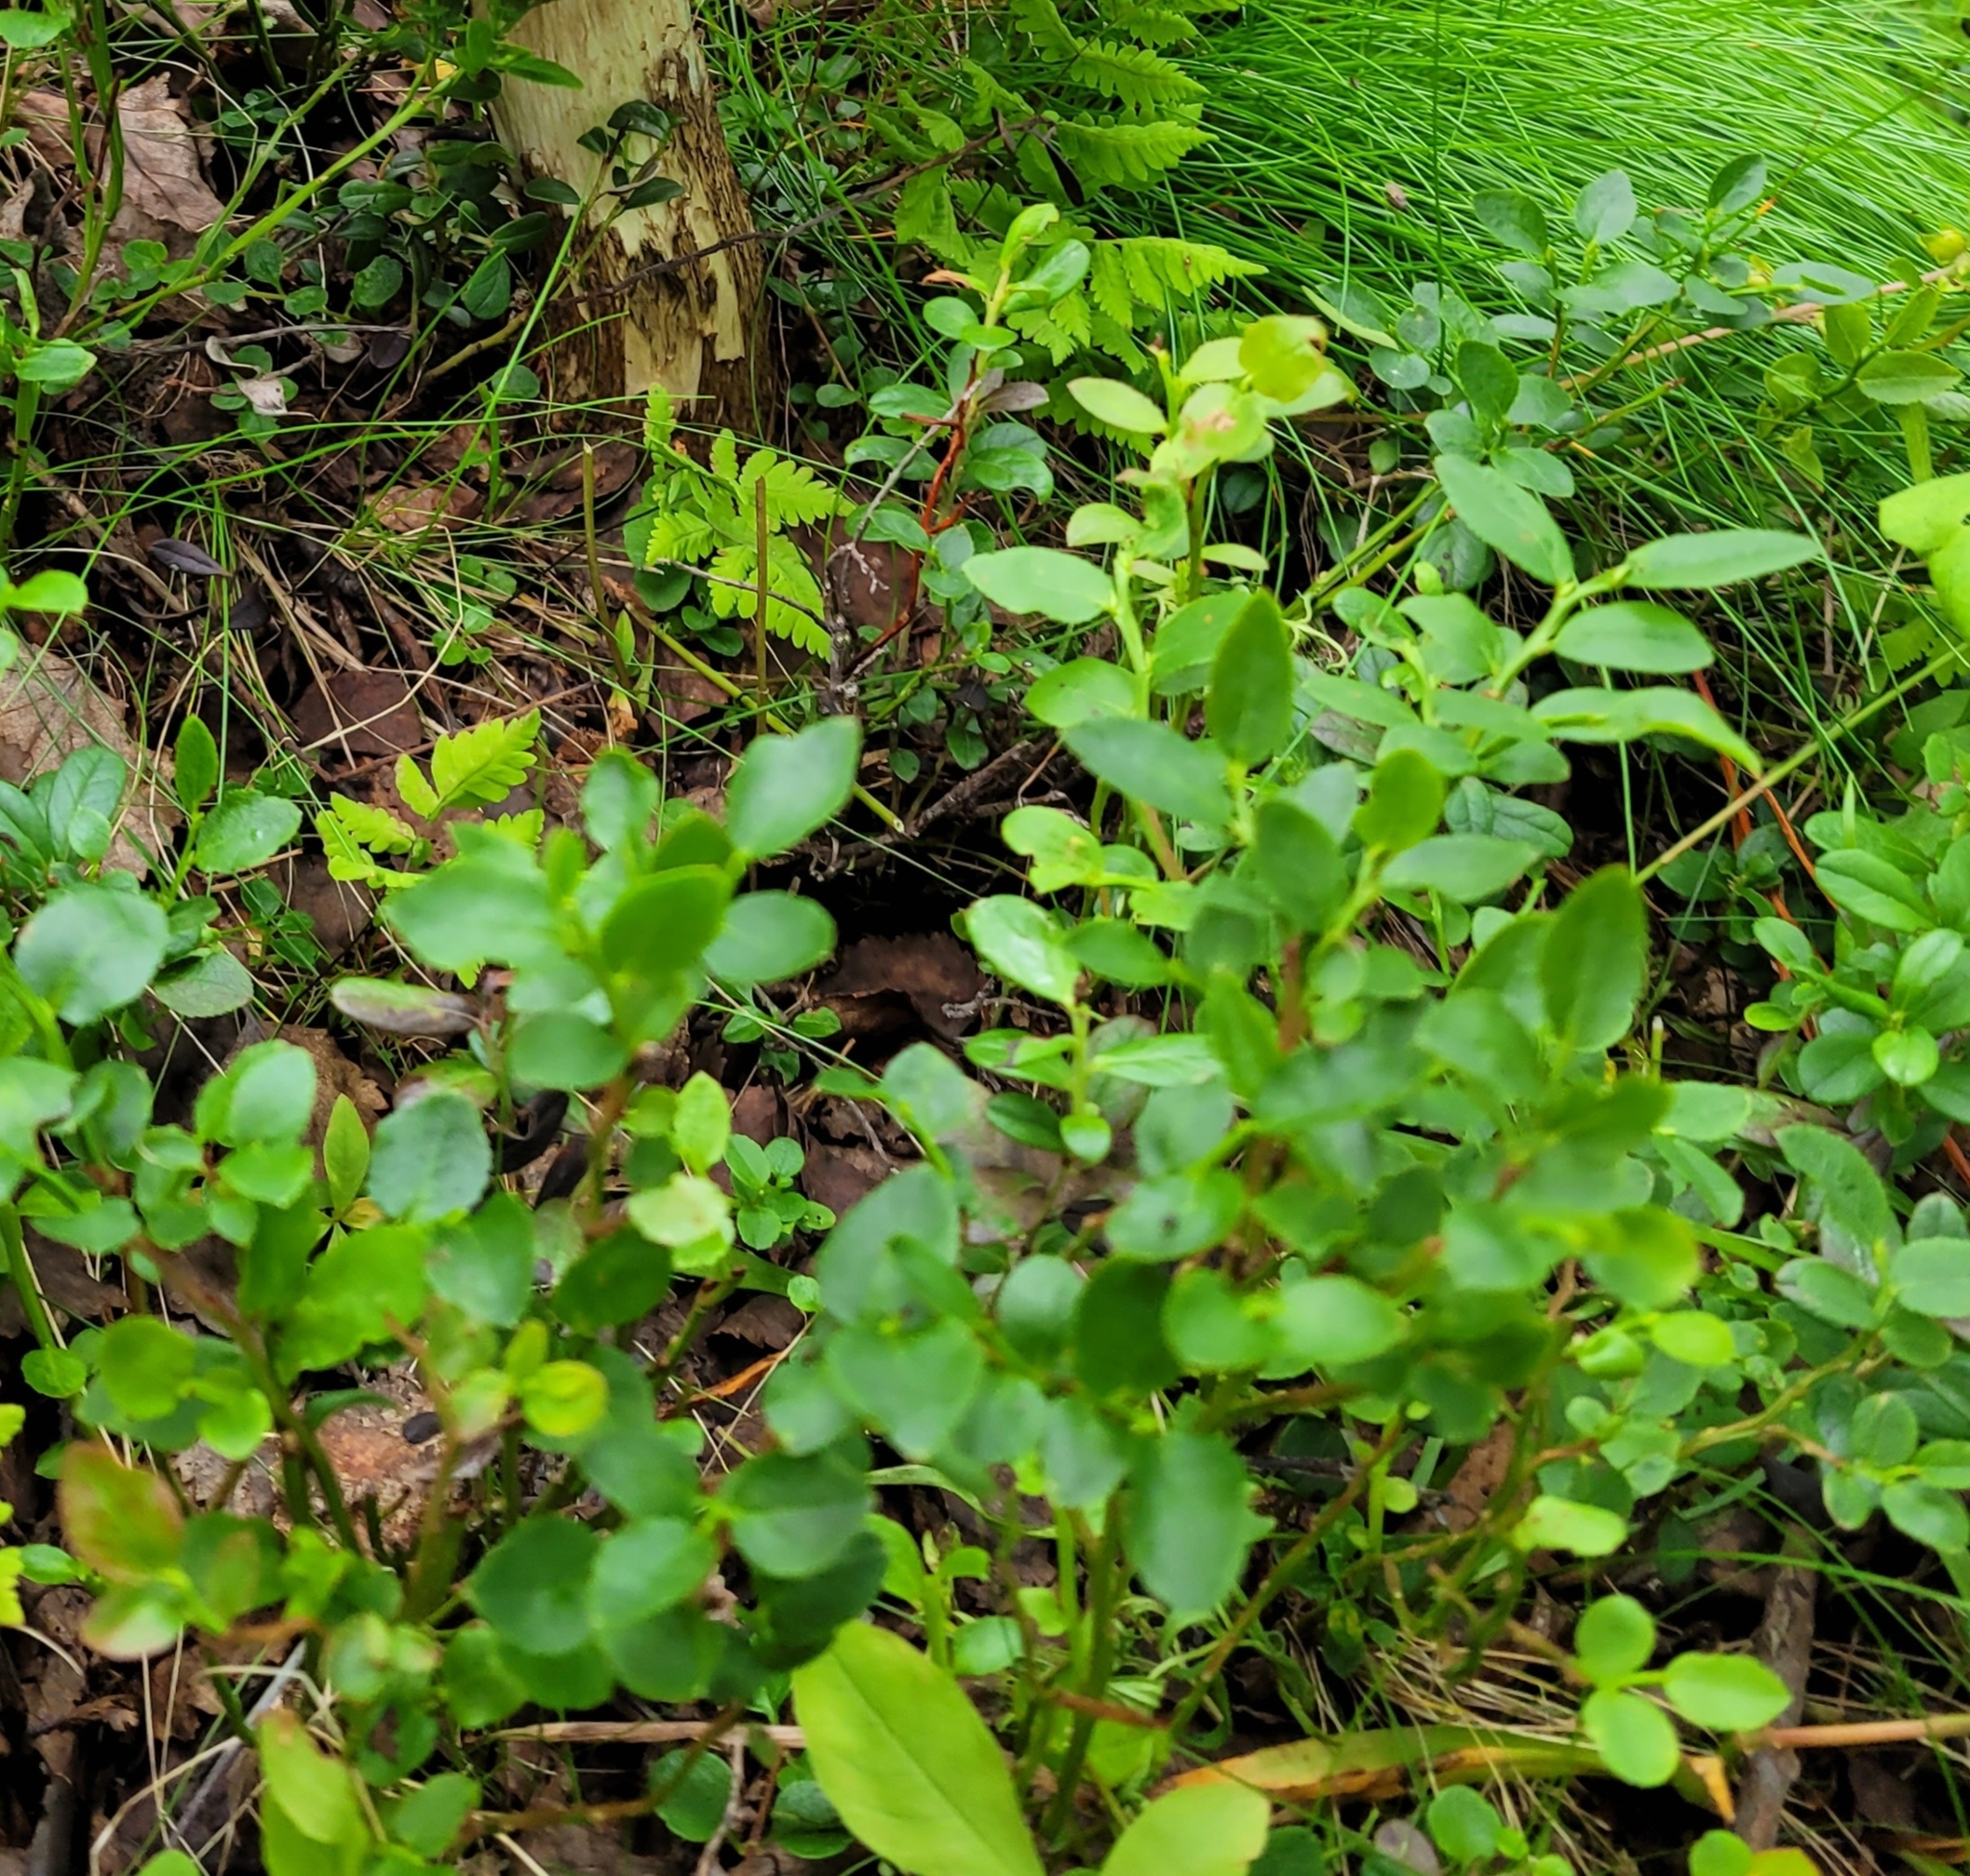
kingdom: Plantae
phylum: Tracheophyta
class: Magnoliopsida
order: Ericales
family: Ericaceae
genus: Vaccinium
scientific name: Vaccinium myrtillus
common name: Bilberry
